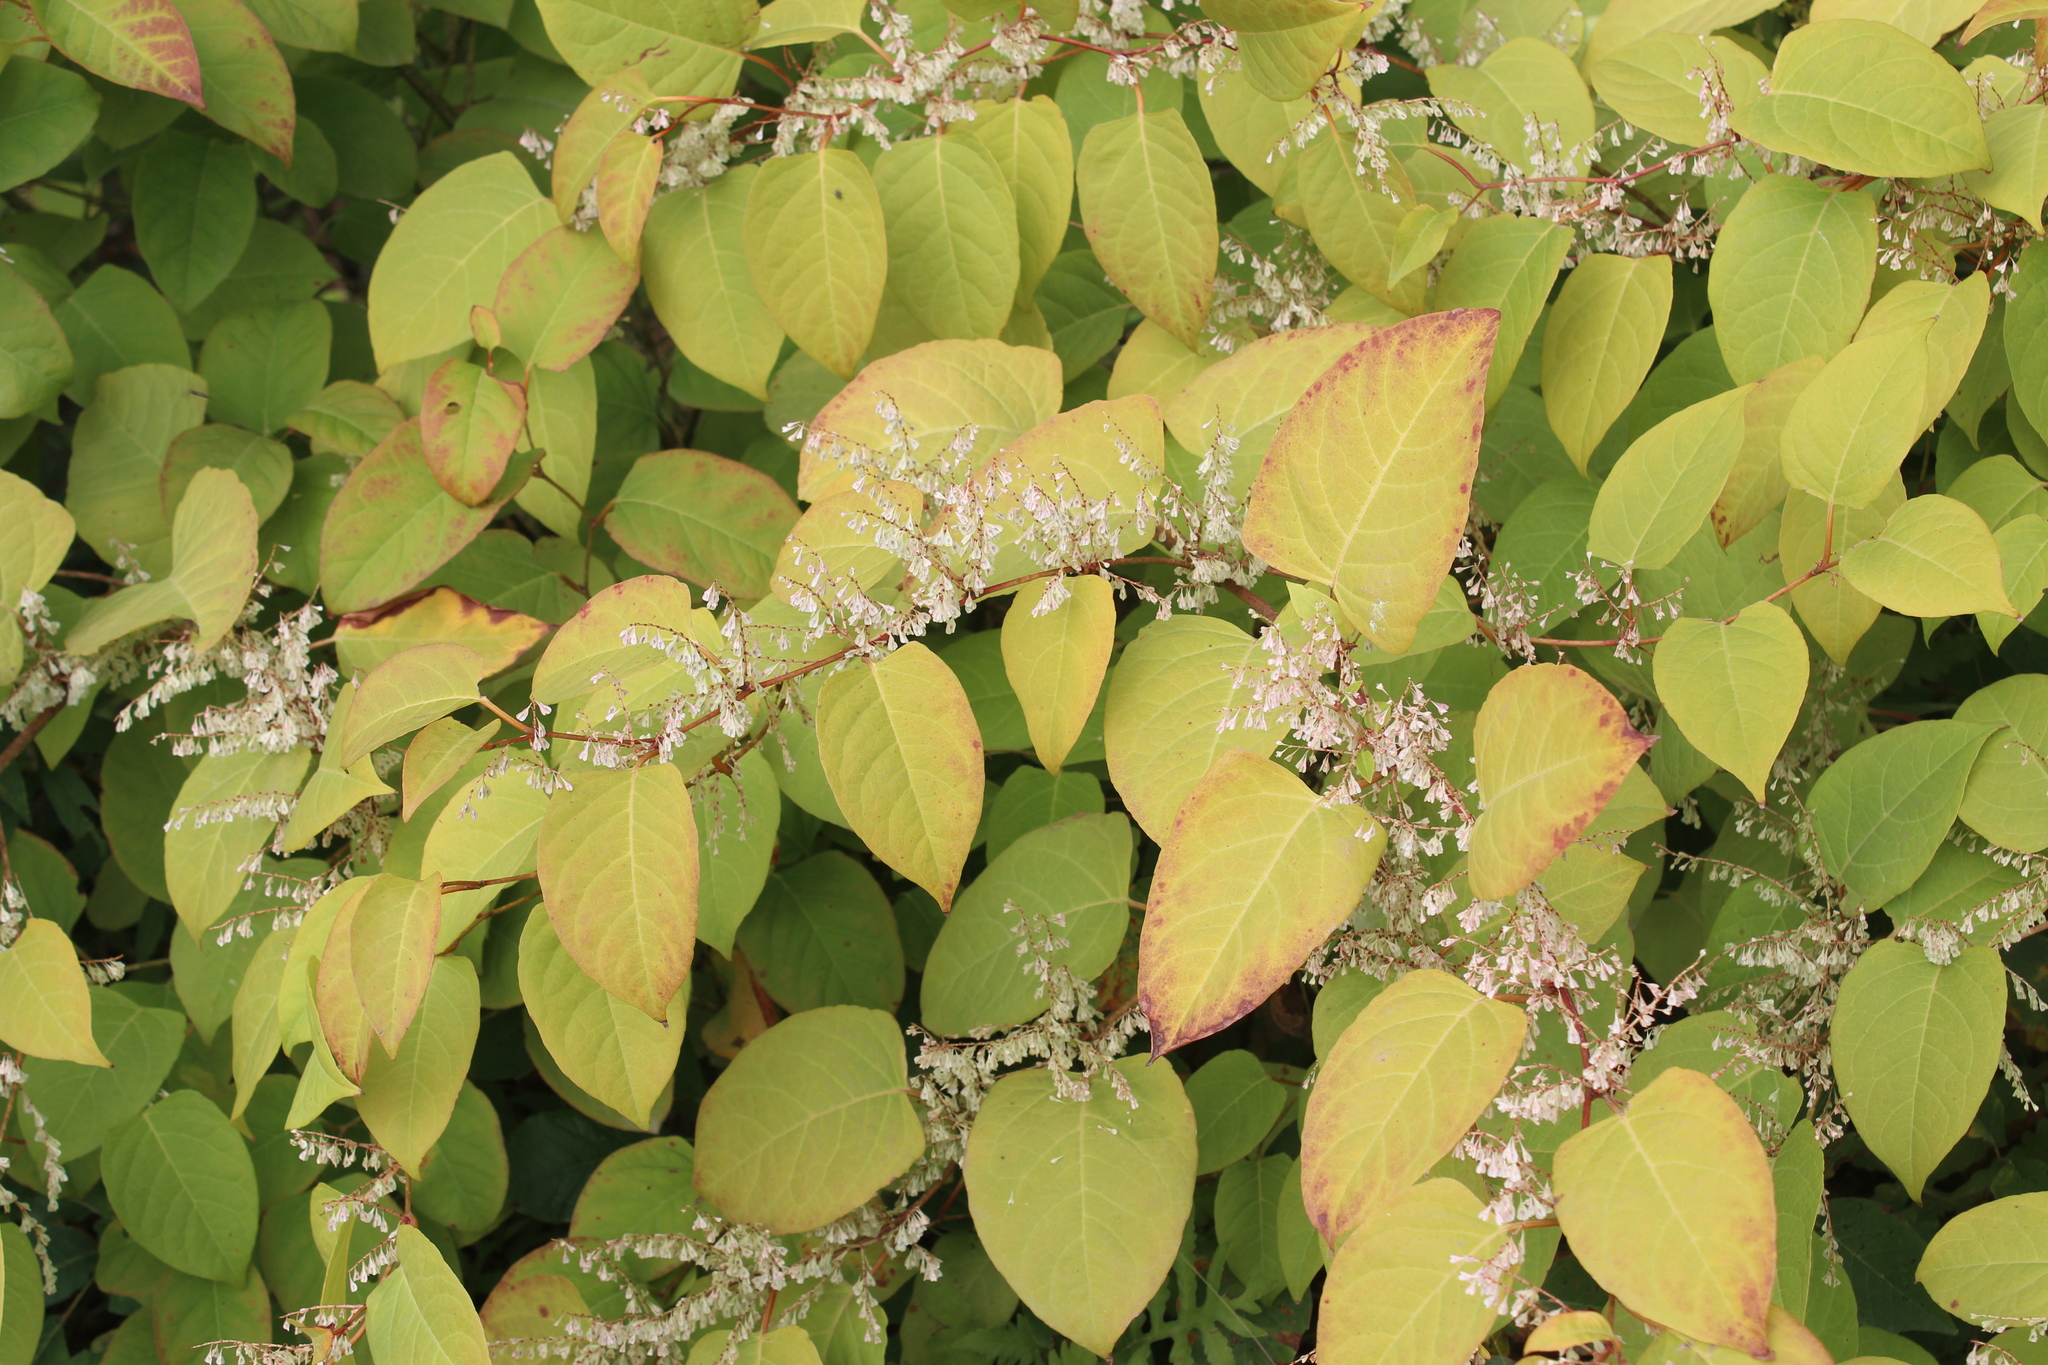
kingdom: Plantae
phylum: Tracheophyta
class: Magnoliopsida
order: Caryophyllales
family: Polygonaceae
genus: Reynoutria
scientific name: Reynoutria japonica
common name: Japanese knotweed
